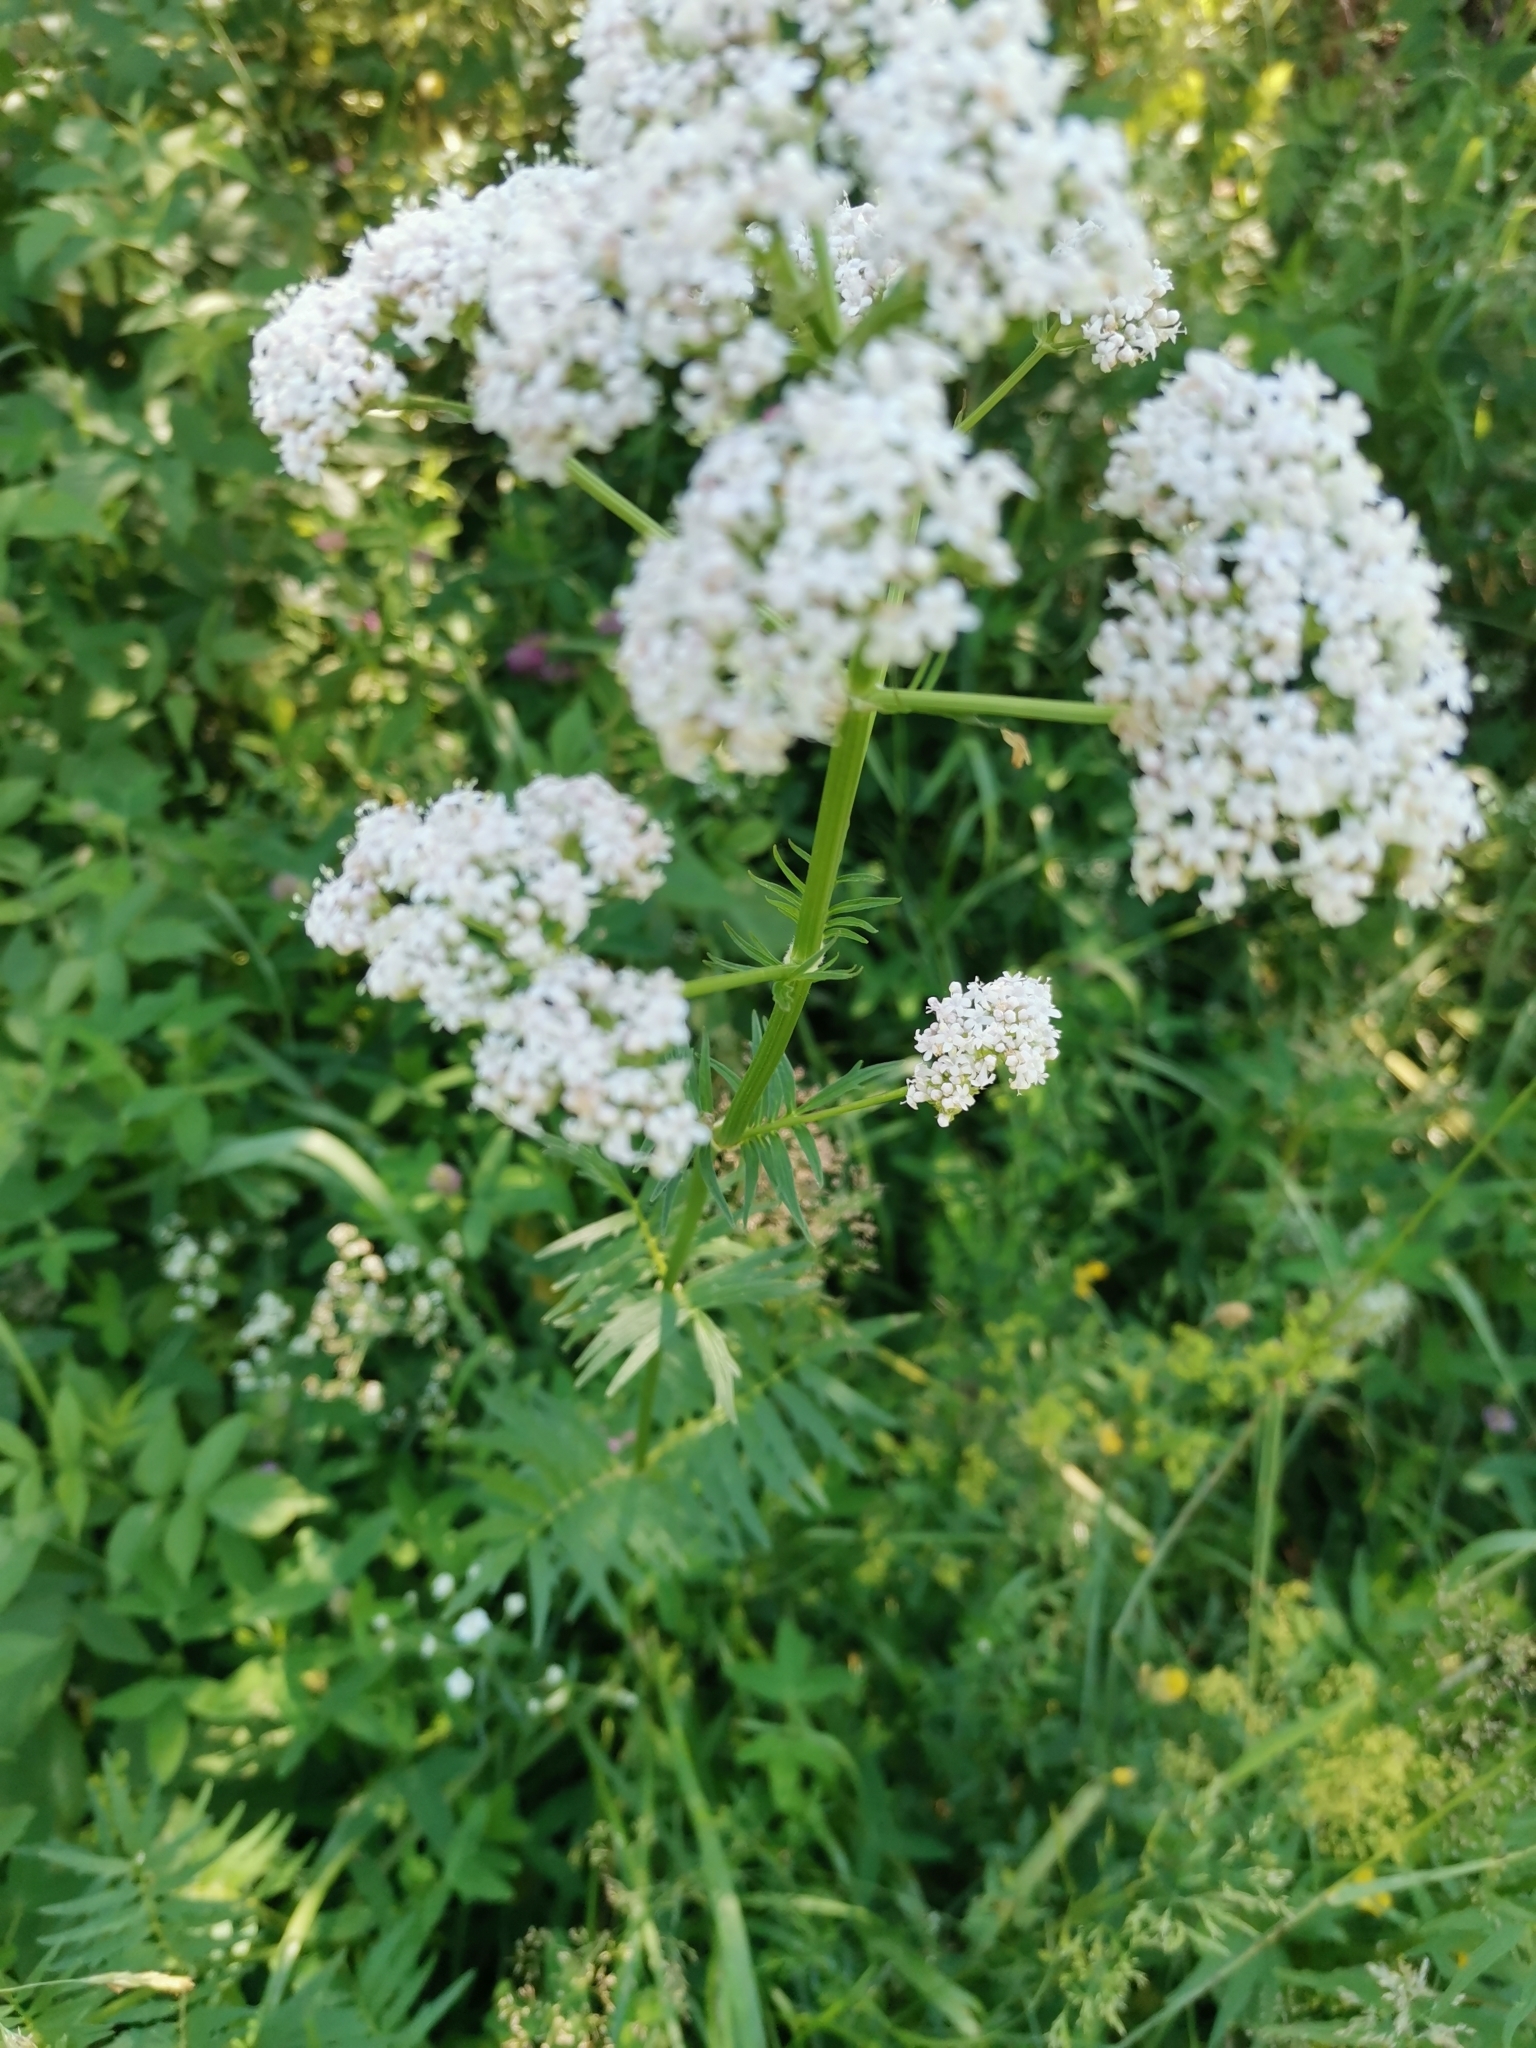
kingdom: Plantae
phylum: Tracheophyta
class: Magnoliopsida
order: Dipsacales
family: Caprifoliaceae
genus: Valeriana
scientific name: Valeriana officinalis
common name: Common valerian
